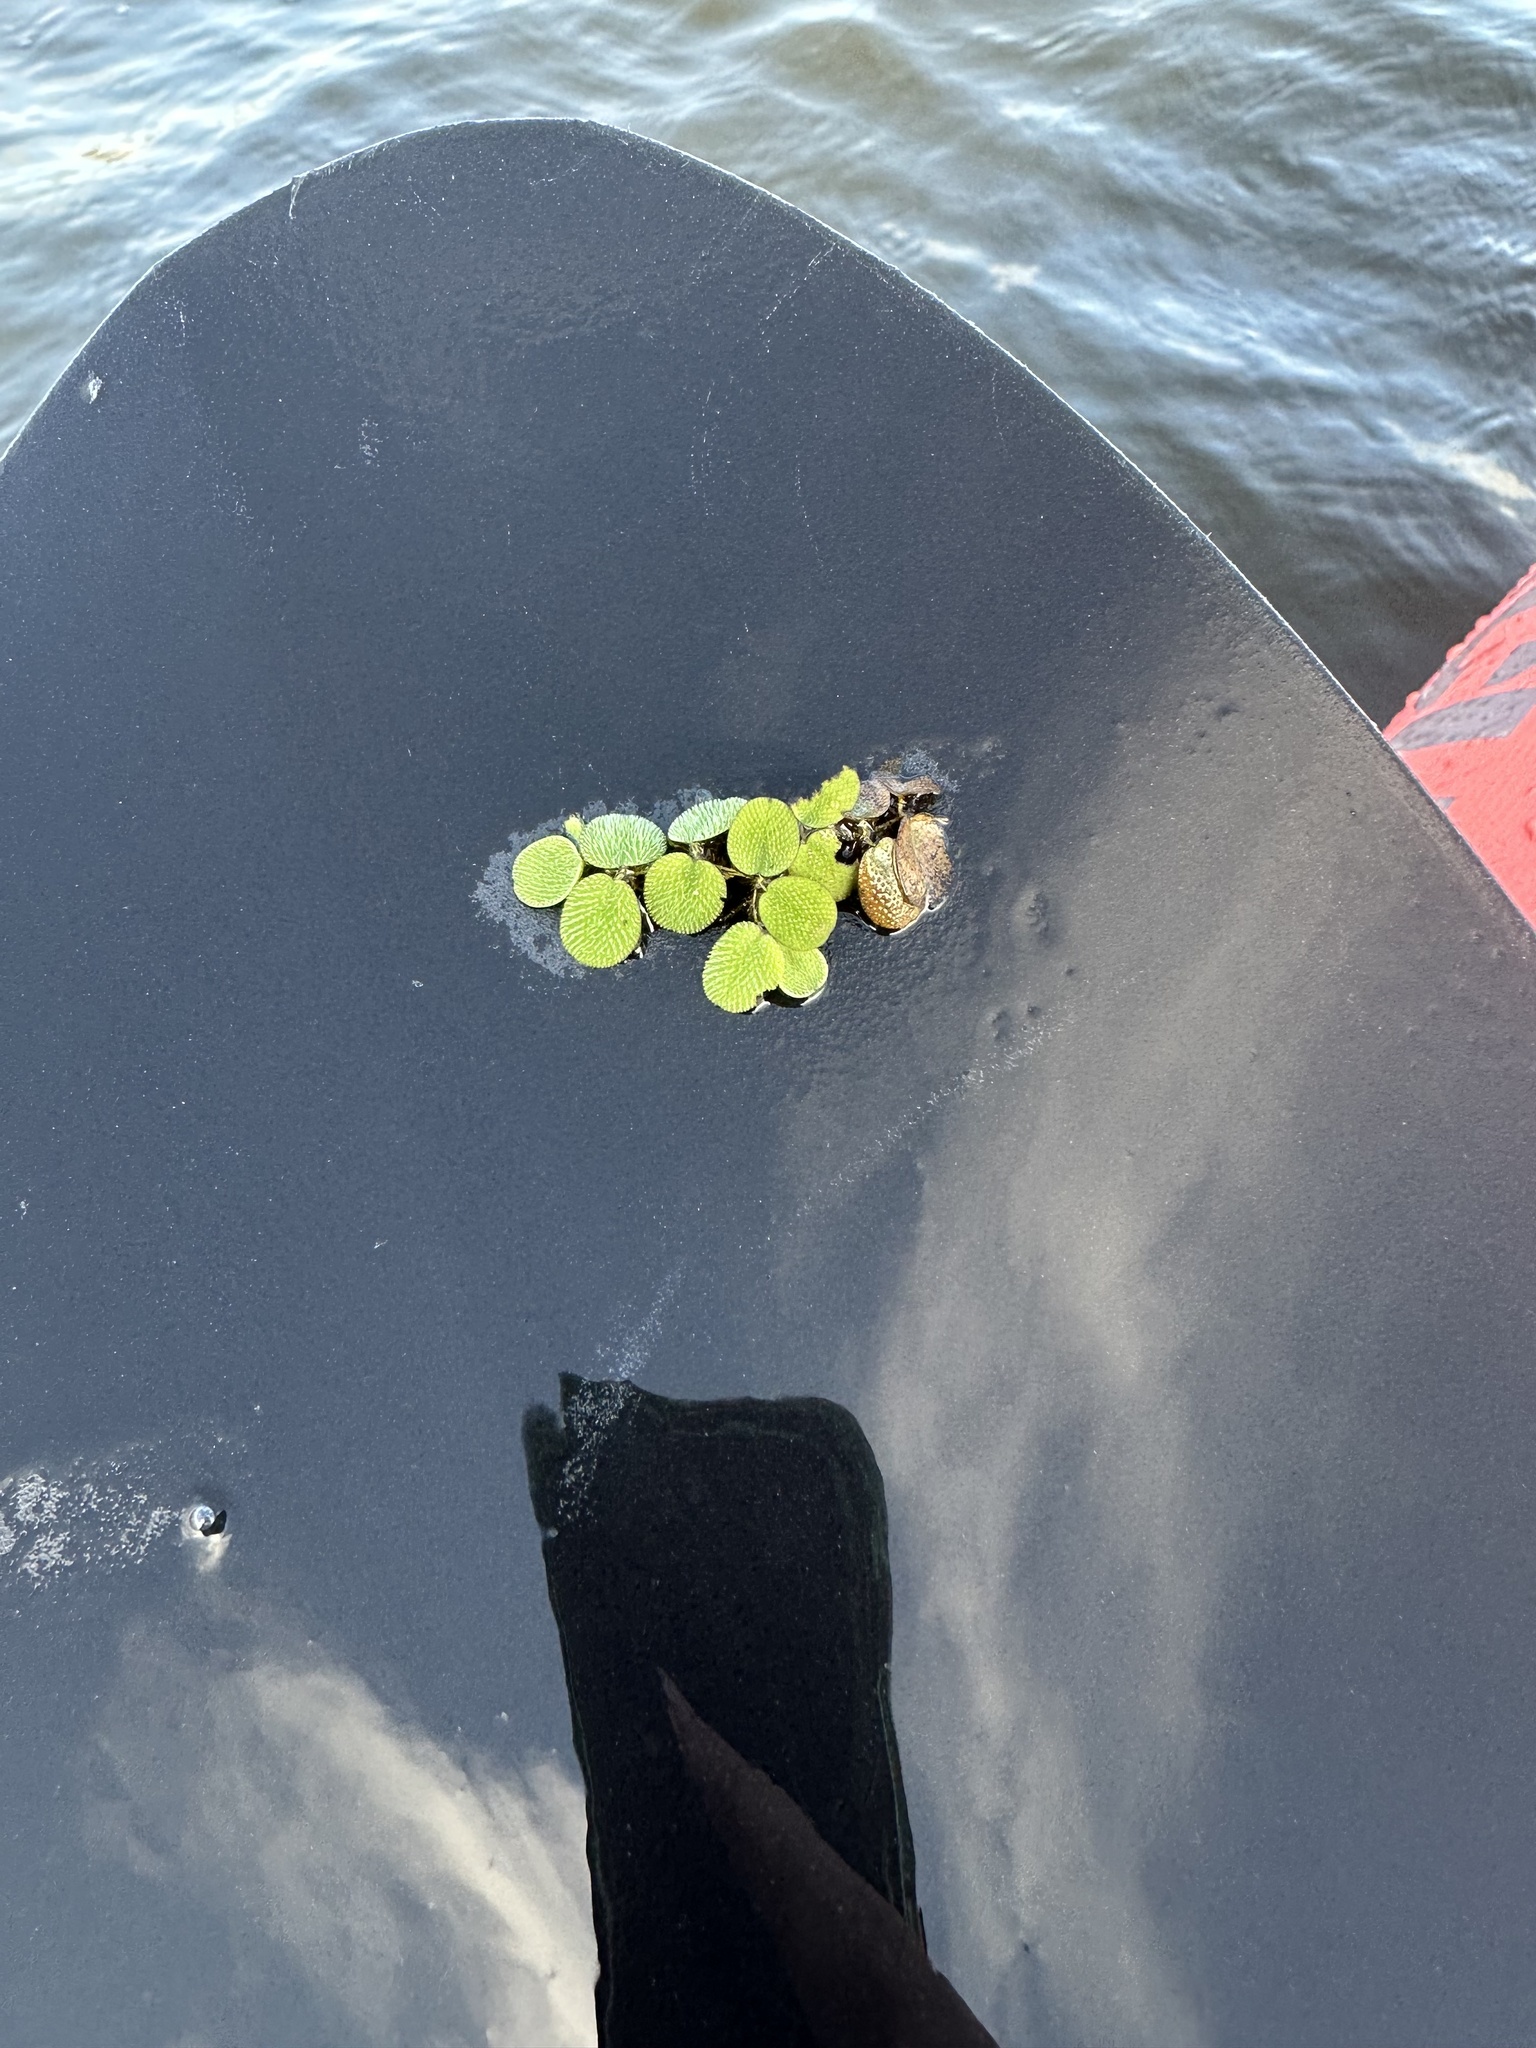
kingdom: Plantae
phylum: Tracheophyta
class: Polypodiopsida
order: Salviniales
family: Salviniaceae
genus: Salvinia
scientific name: Salvinia minima
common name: Water spangles
